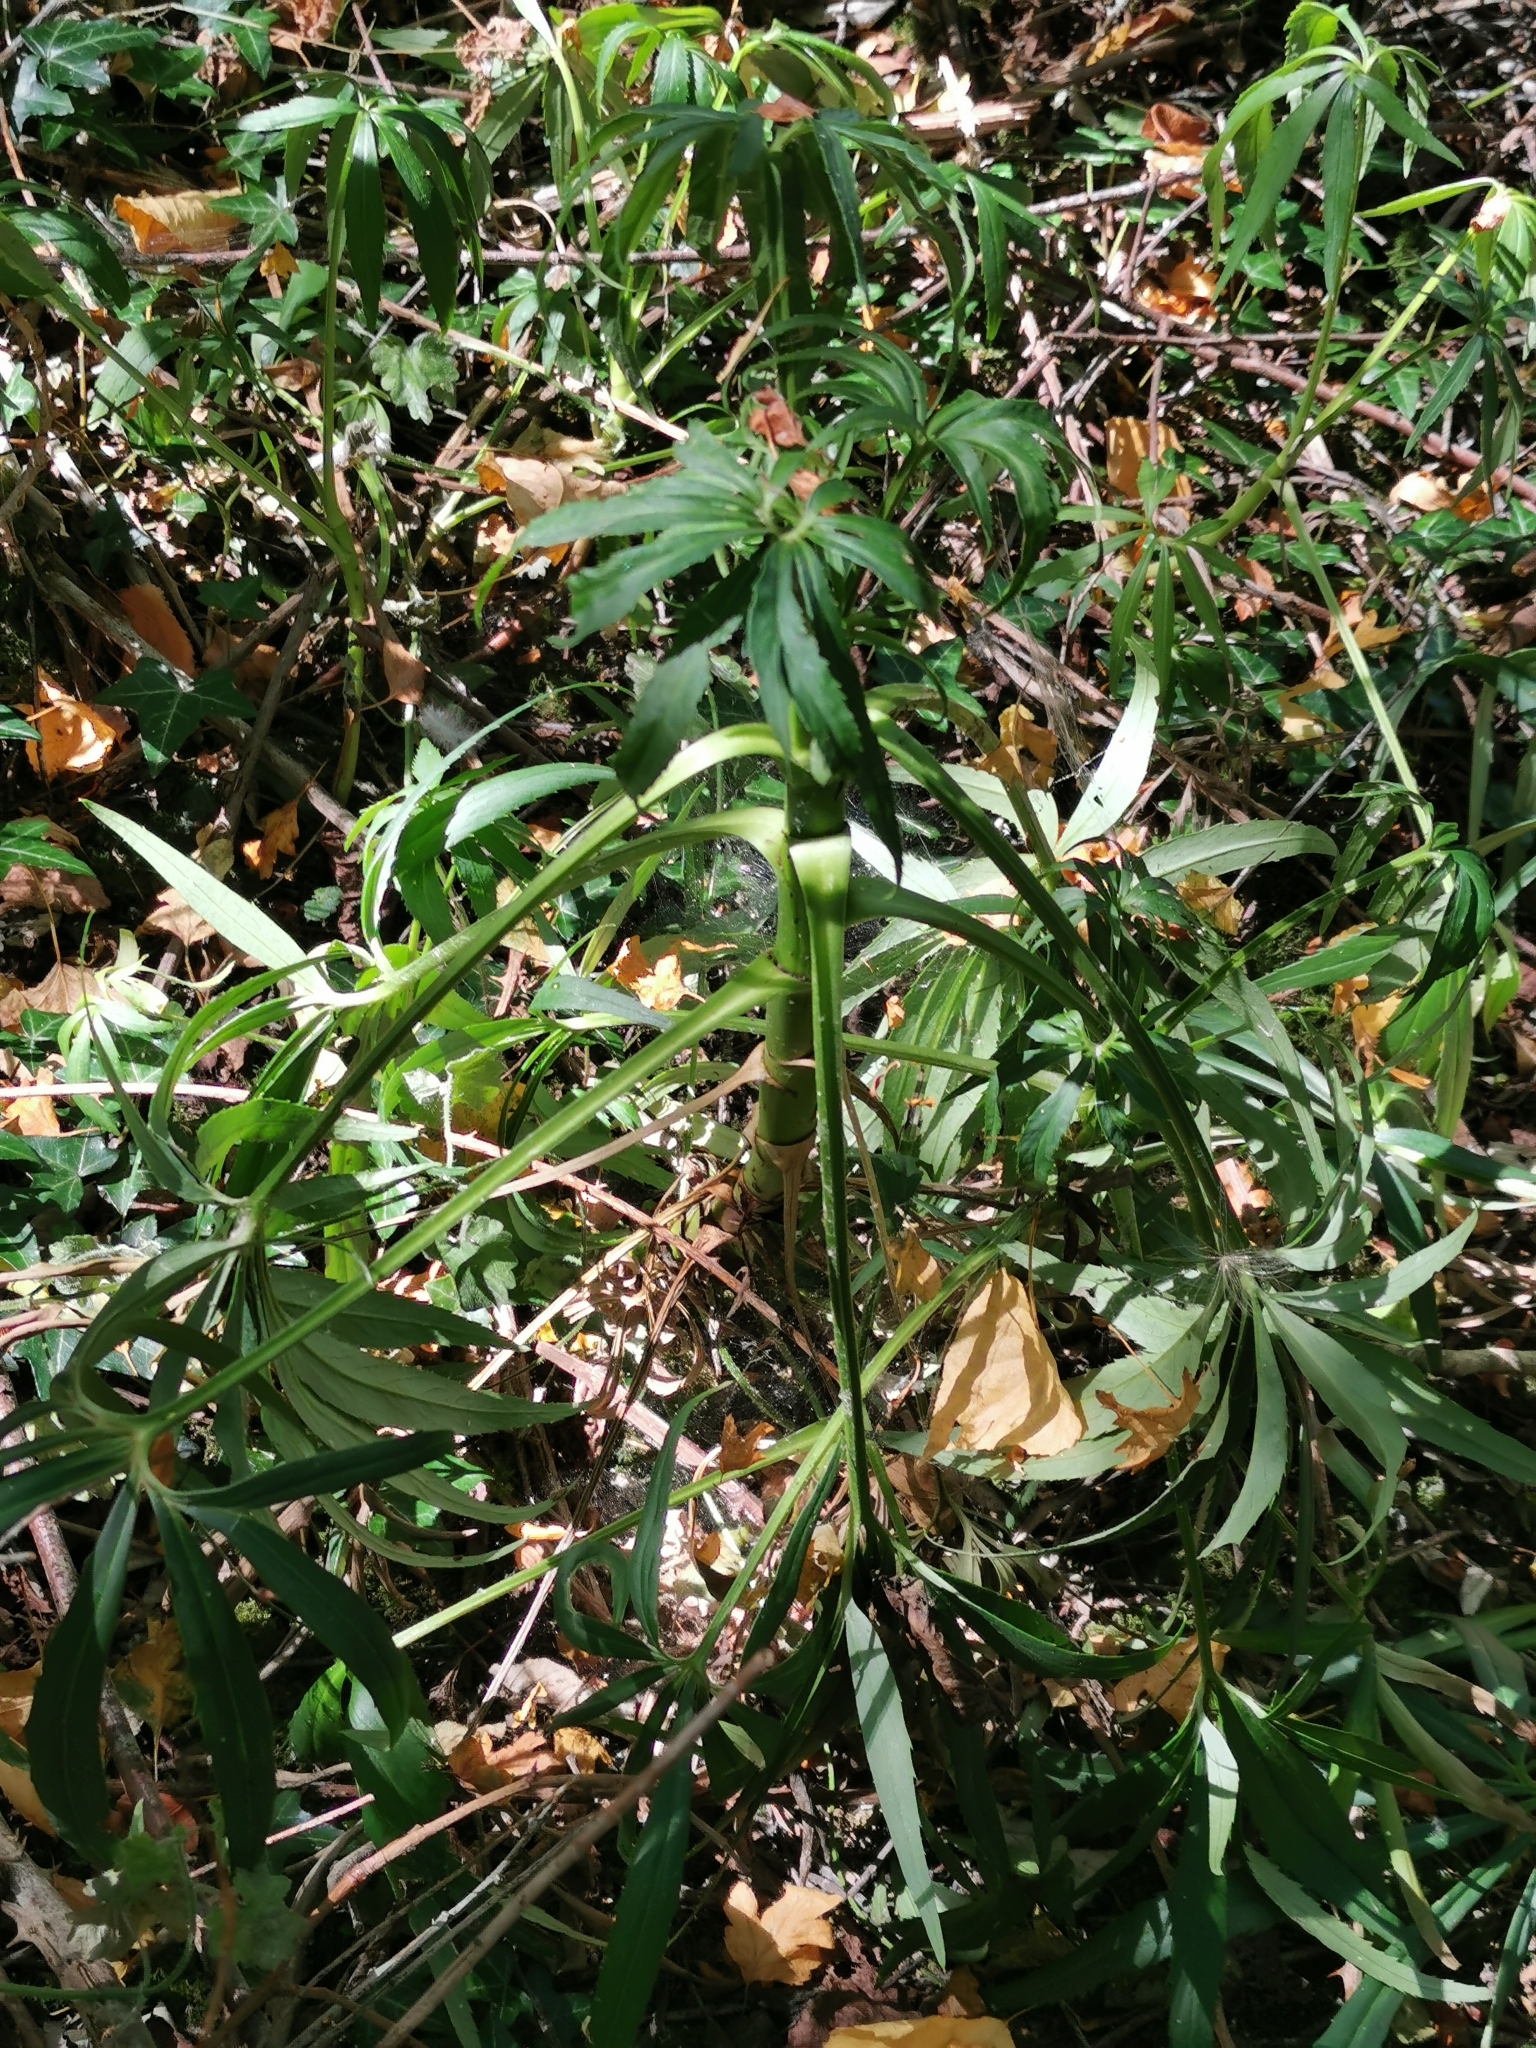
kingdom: Plantae
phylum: Tracheophyta
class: Magnoliopsida
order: Ranunculales
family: Ranunculaceae
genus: Helleborus
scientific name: Helleborus foetidus
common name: Stinking hellebore
